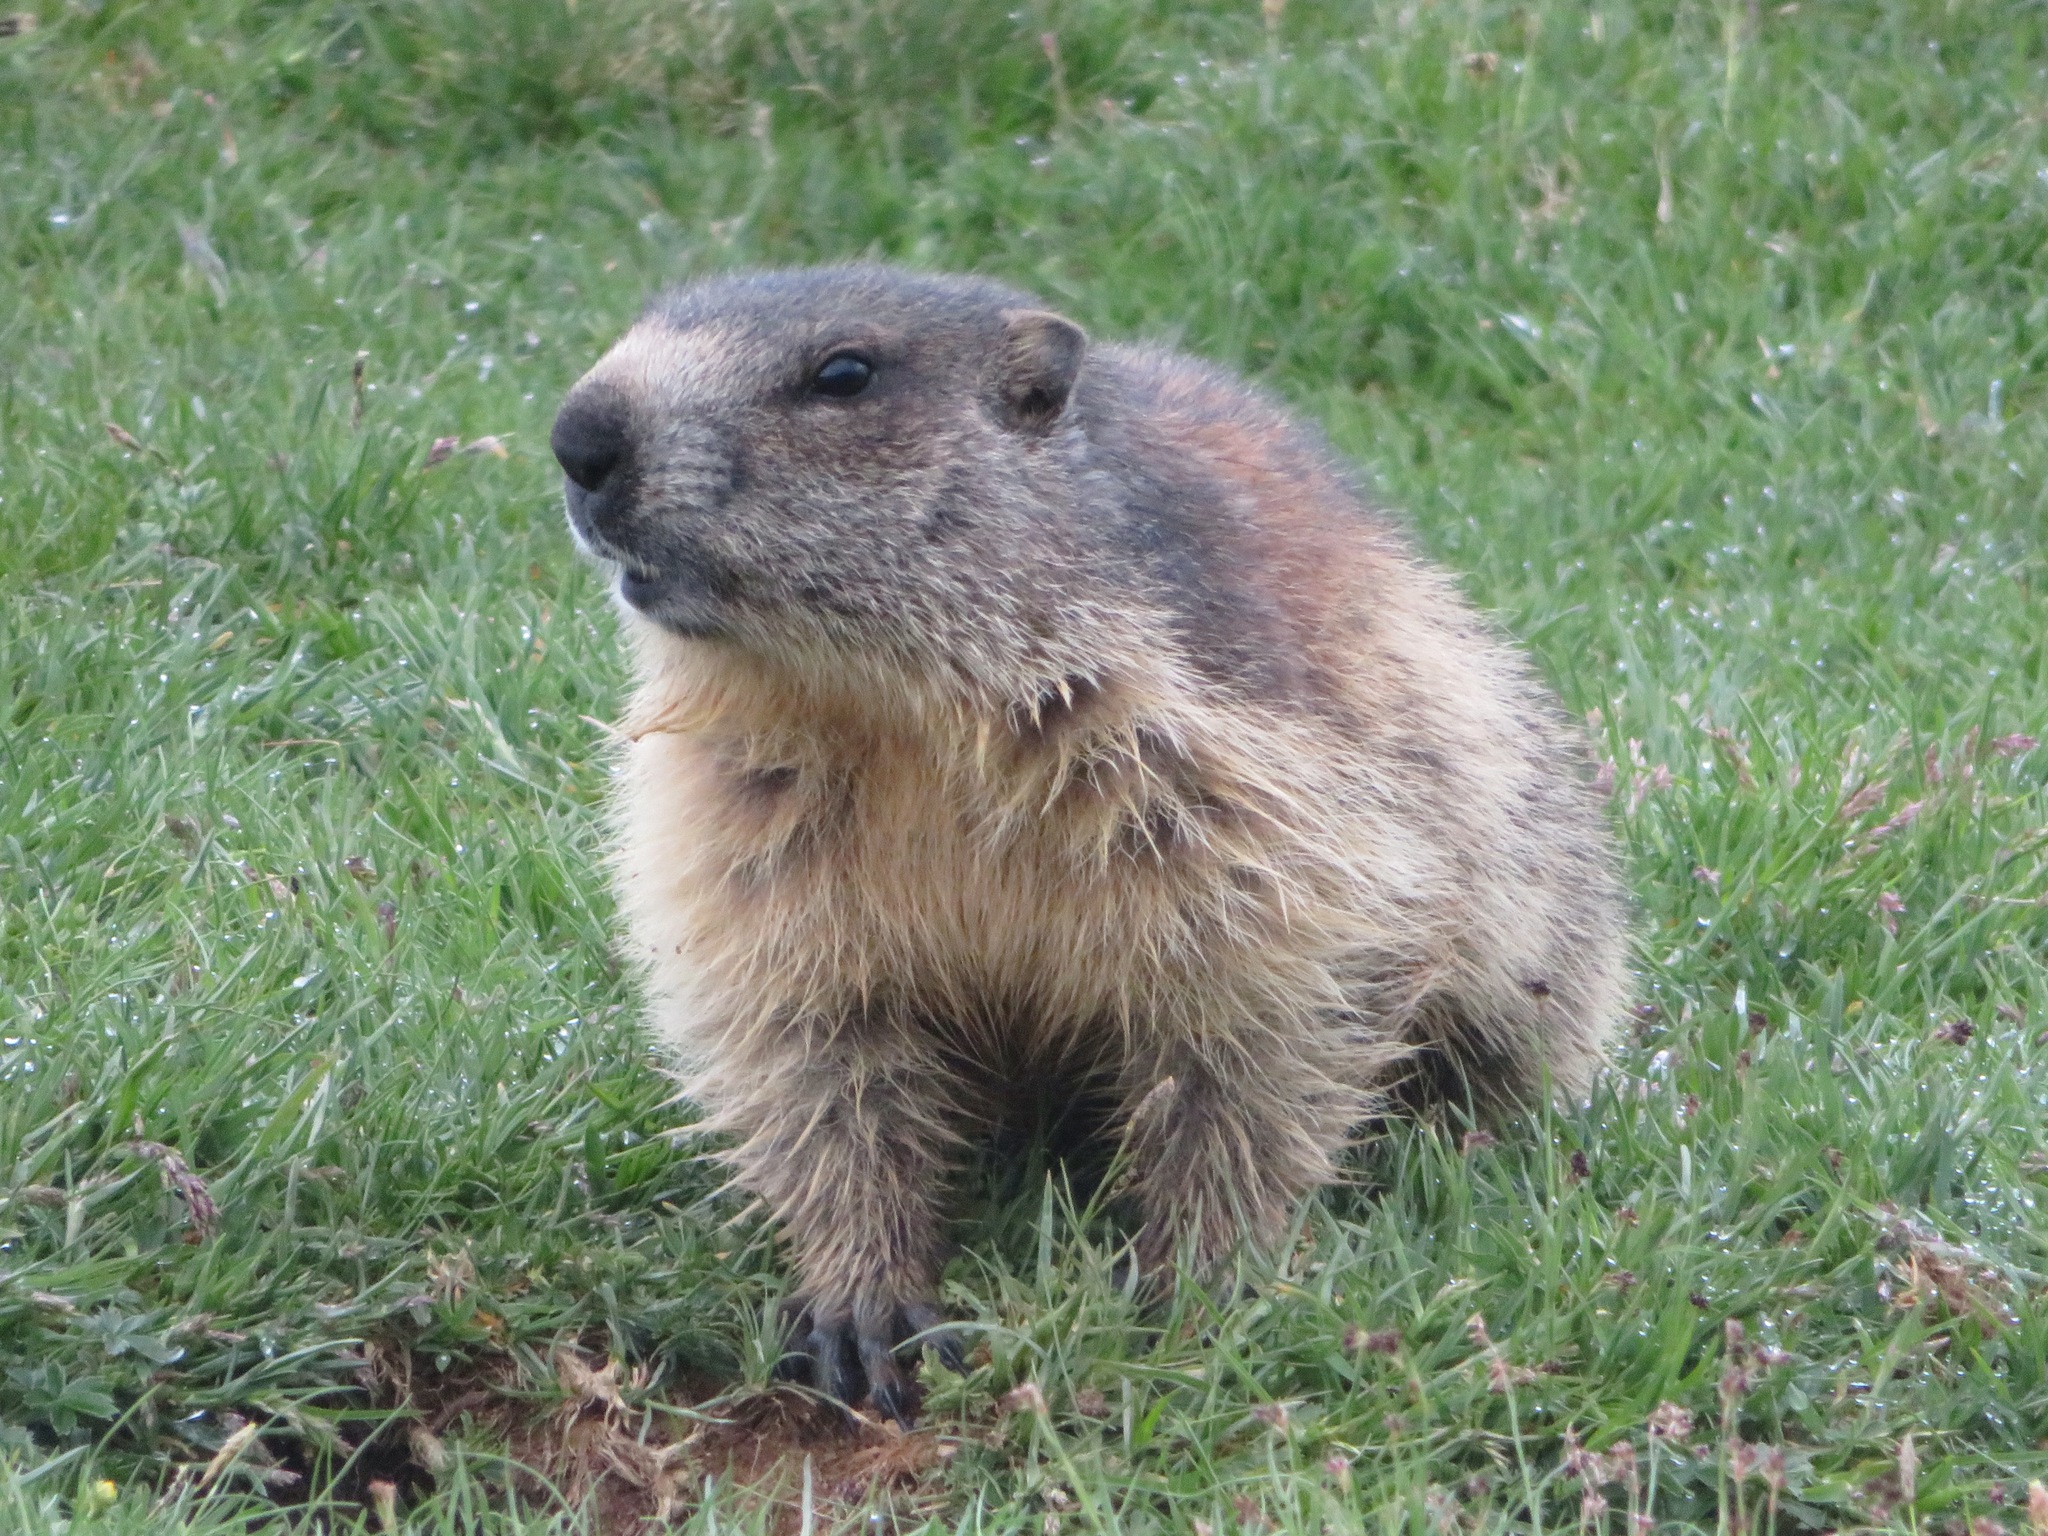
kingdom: Animalia
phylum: Chordata
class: Mammalia
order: Rodentia
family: Sciuridae
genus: Marmota
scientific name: Marmota marmota
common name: Alpine marmot
